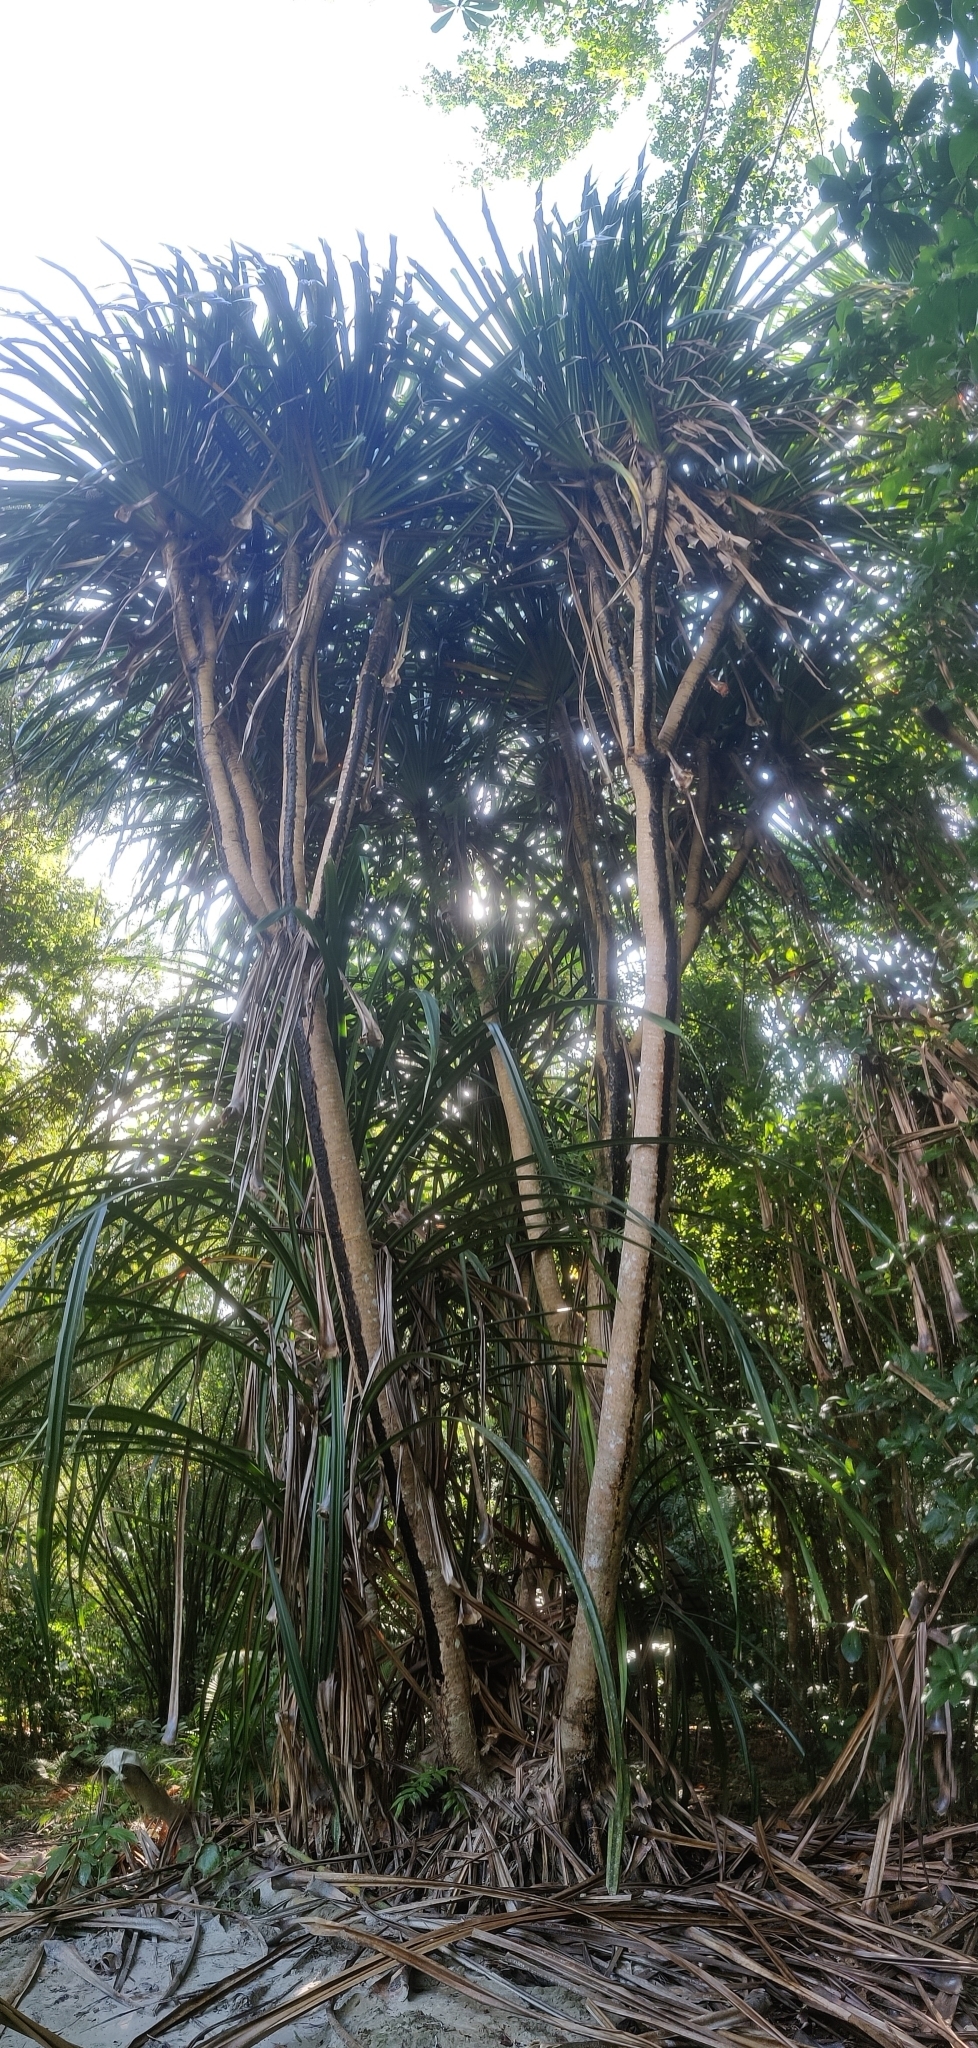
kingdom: Plantae
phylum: Tracheophyta
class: Liliopsida
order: Pandanales
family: Pandanaceae
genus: Pandanus
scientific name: Pandanus tectorius
